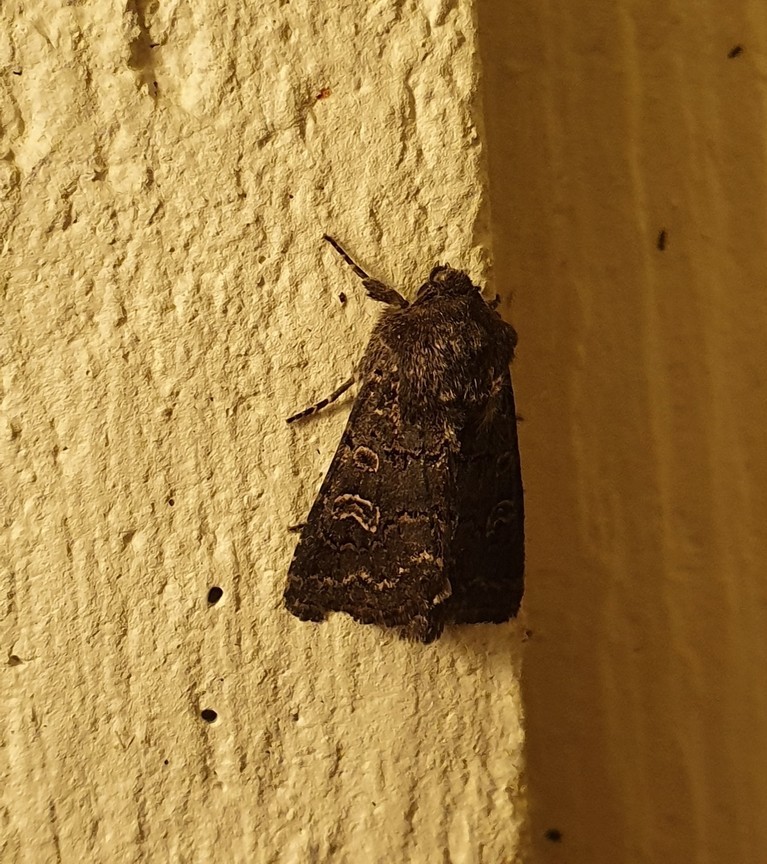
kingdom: Animalia
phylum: Arthropoda
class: Insecta
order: Lepidoptera
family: Noctuidae
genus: Tholera
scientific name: Tholera cespitis
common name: Hedge rustic
